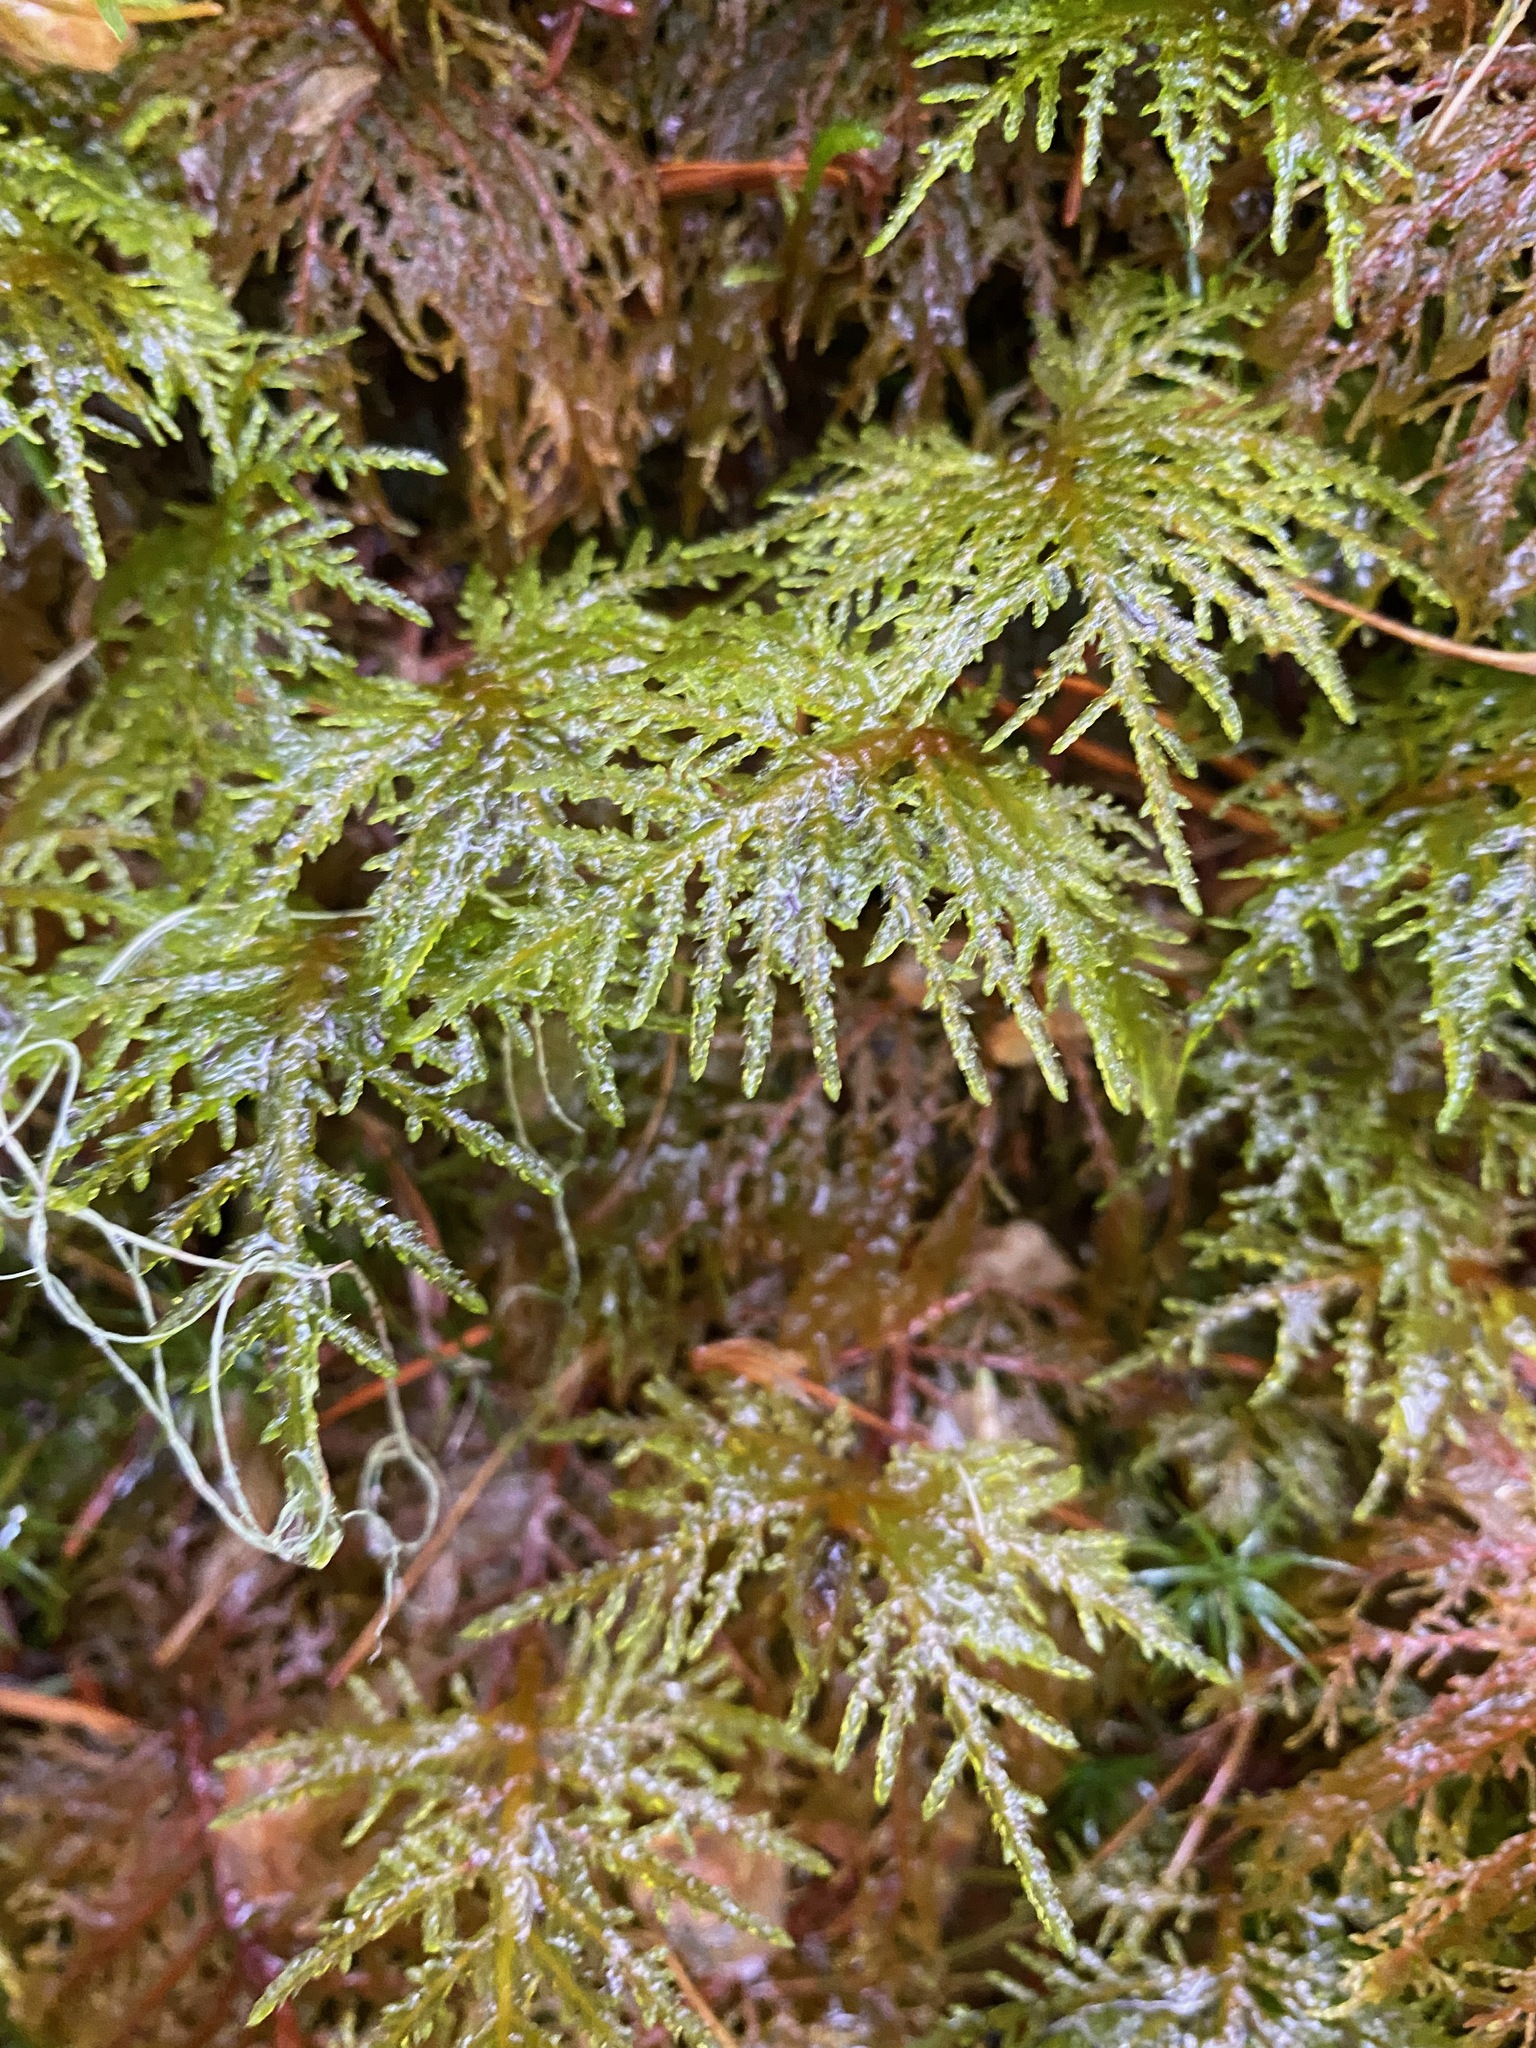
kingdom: Plantae
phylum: Bryophyta
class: Bryopsida
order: Hypnales
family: Hylocomiaceae
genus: Hylocomium
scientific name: Hylocomium splendens
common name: Stairstep moss
